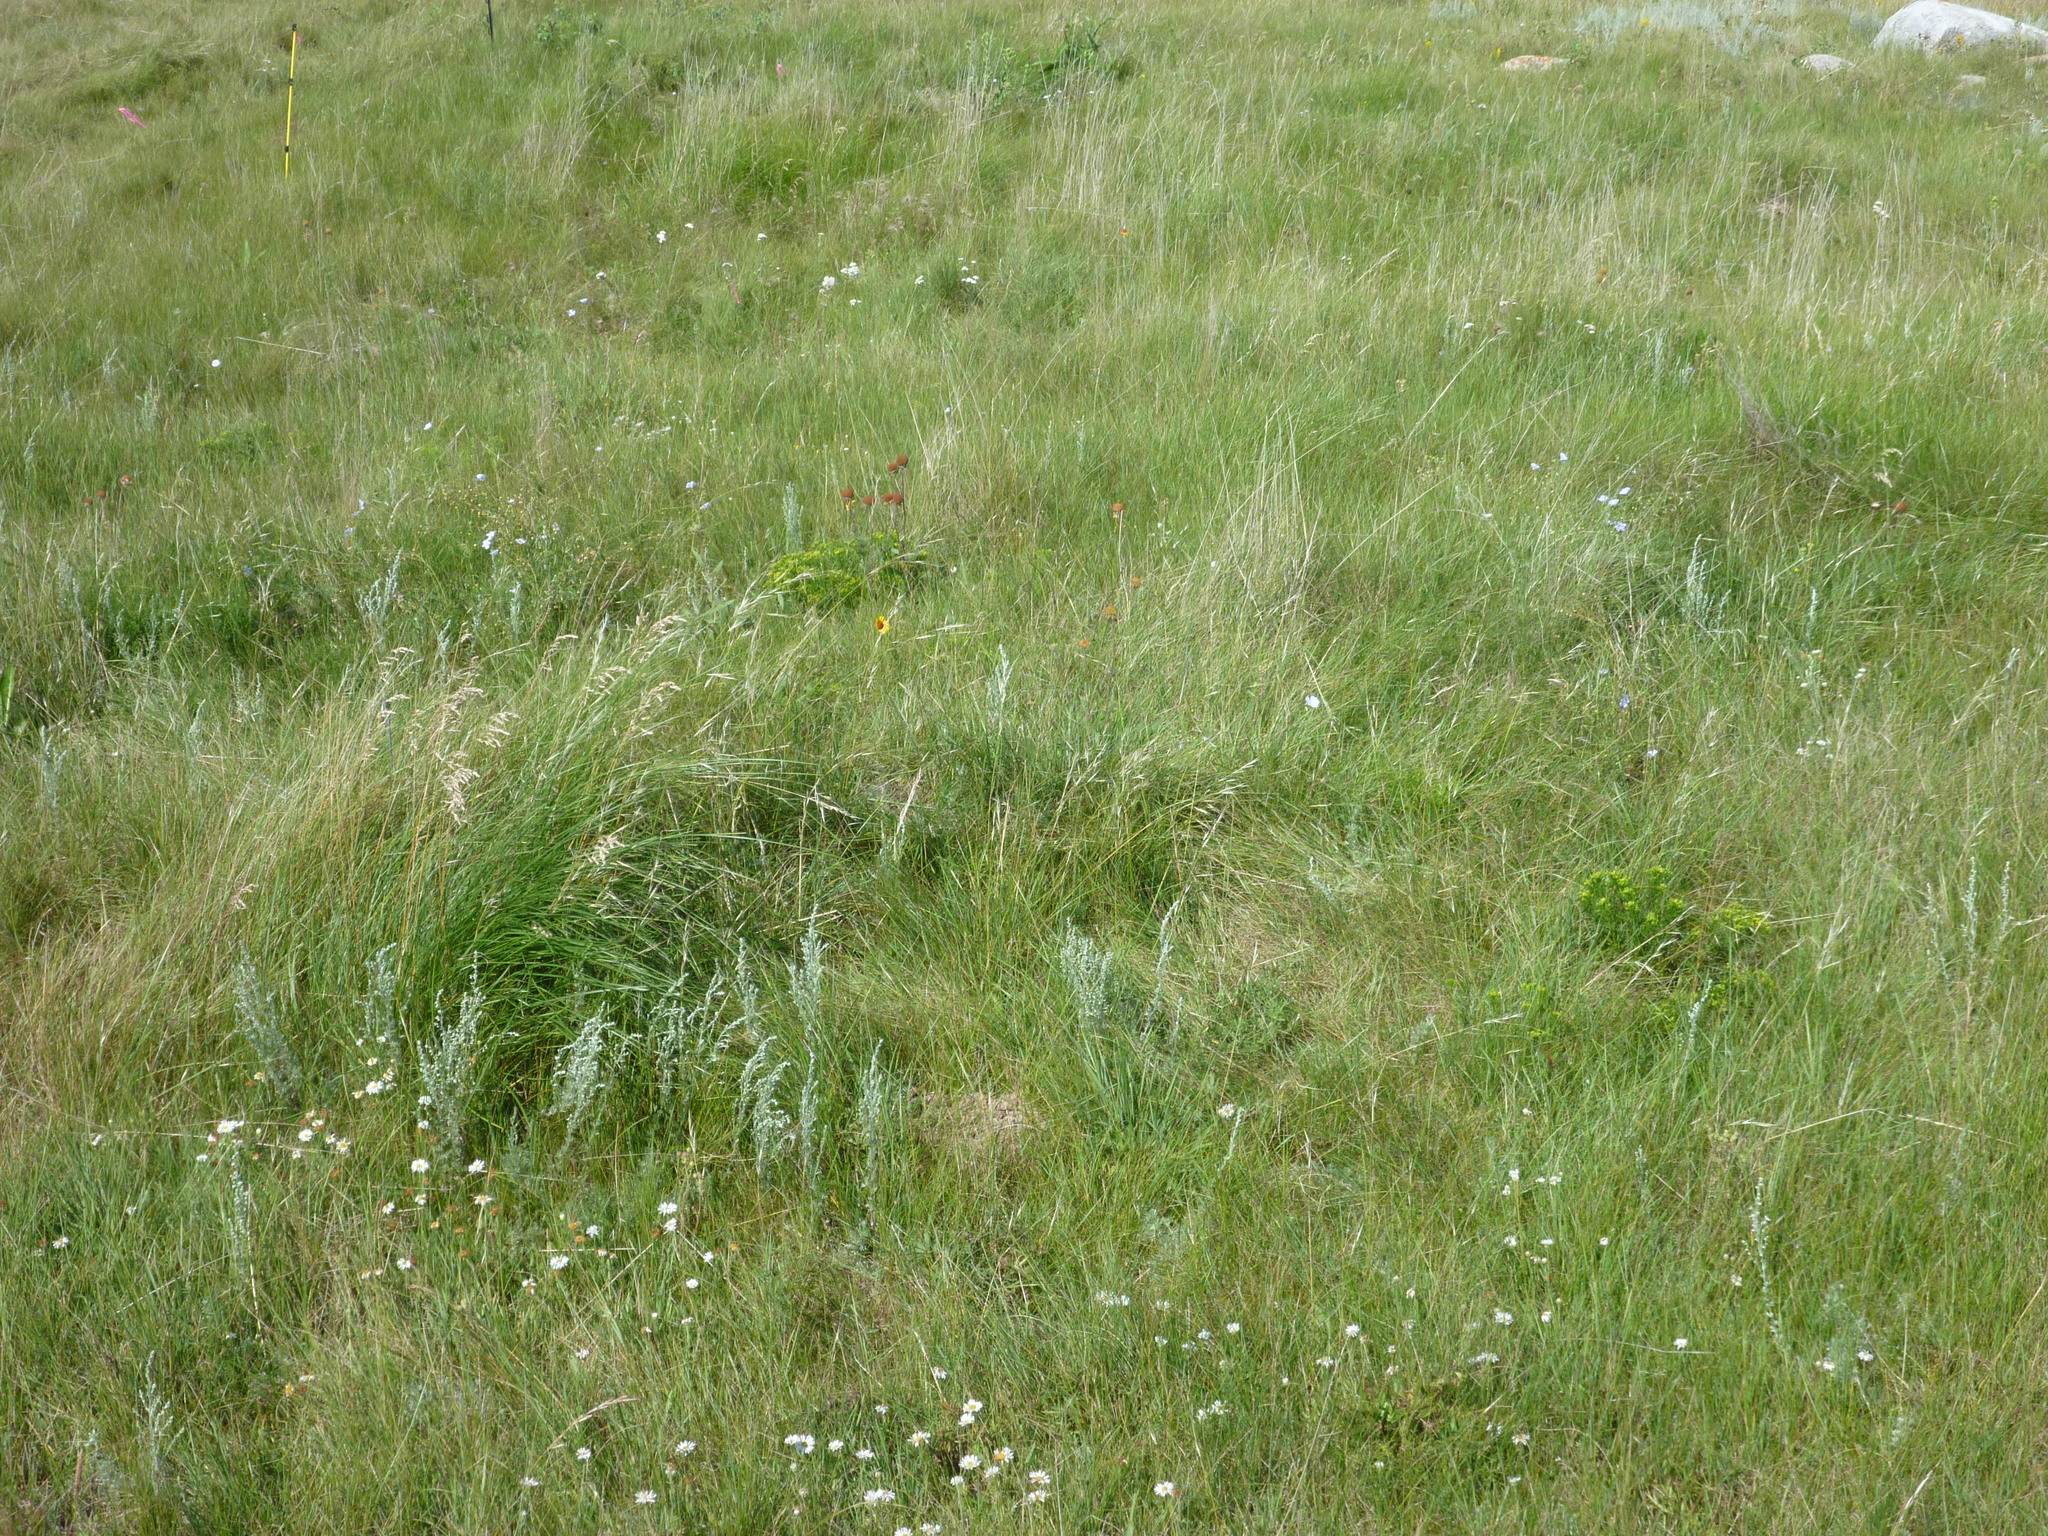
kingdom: Plantae
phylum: Tracheophyta
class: Liliopsida
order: Poales
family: Poaceae
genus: Poa
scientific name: Poa pratensis
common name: Kentucky bluegrass
